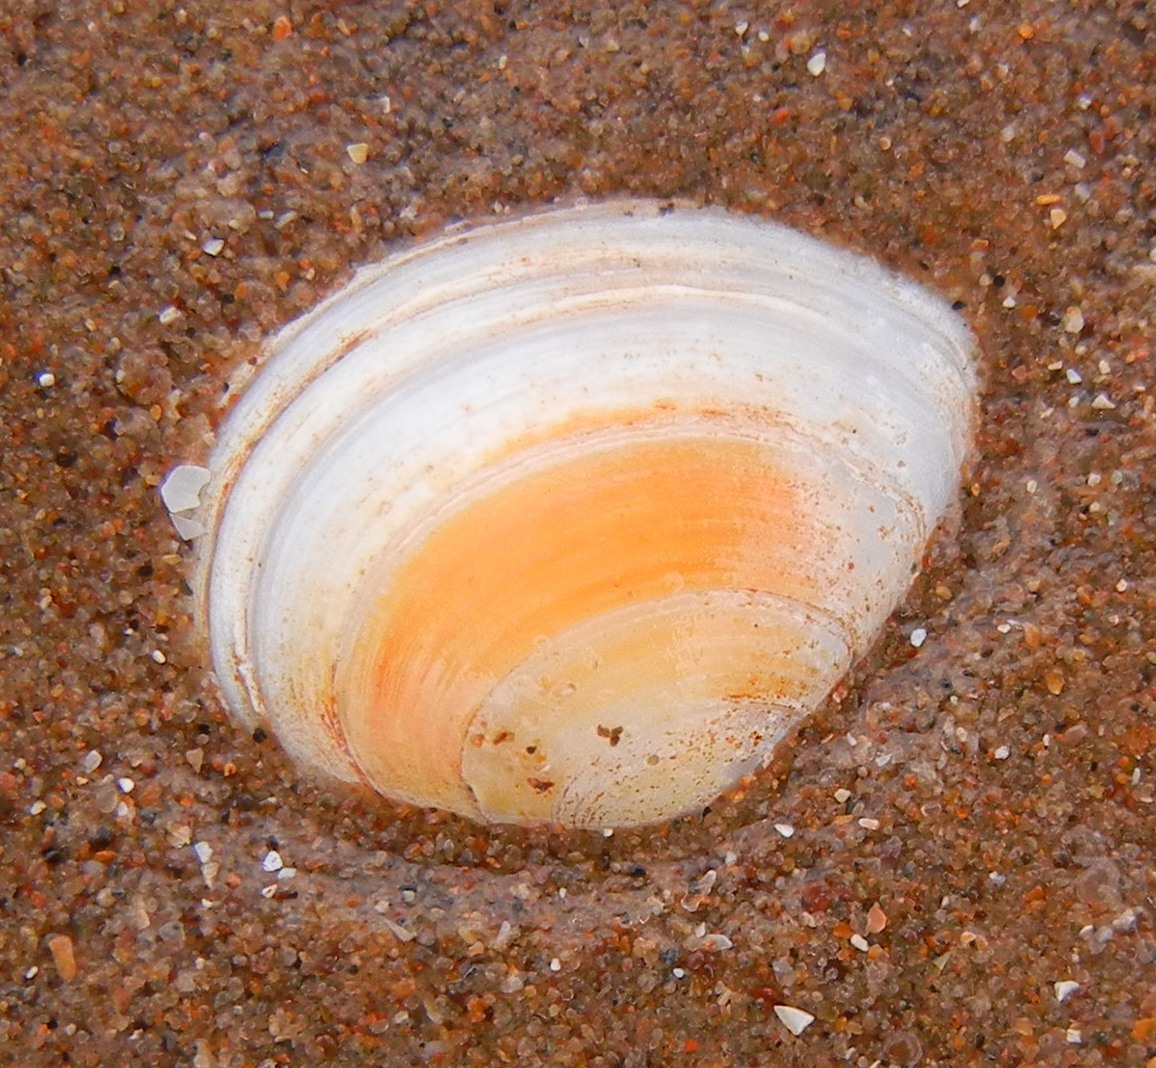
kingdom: Animalia
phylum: Mollusca
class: Bivalvia
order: Cardiida
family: Tellinidae
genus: Macoma
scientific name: Macoma balthica
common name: Baltic tellin
